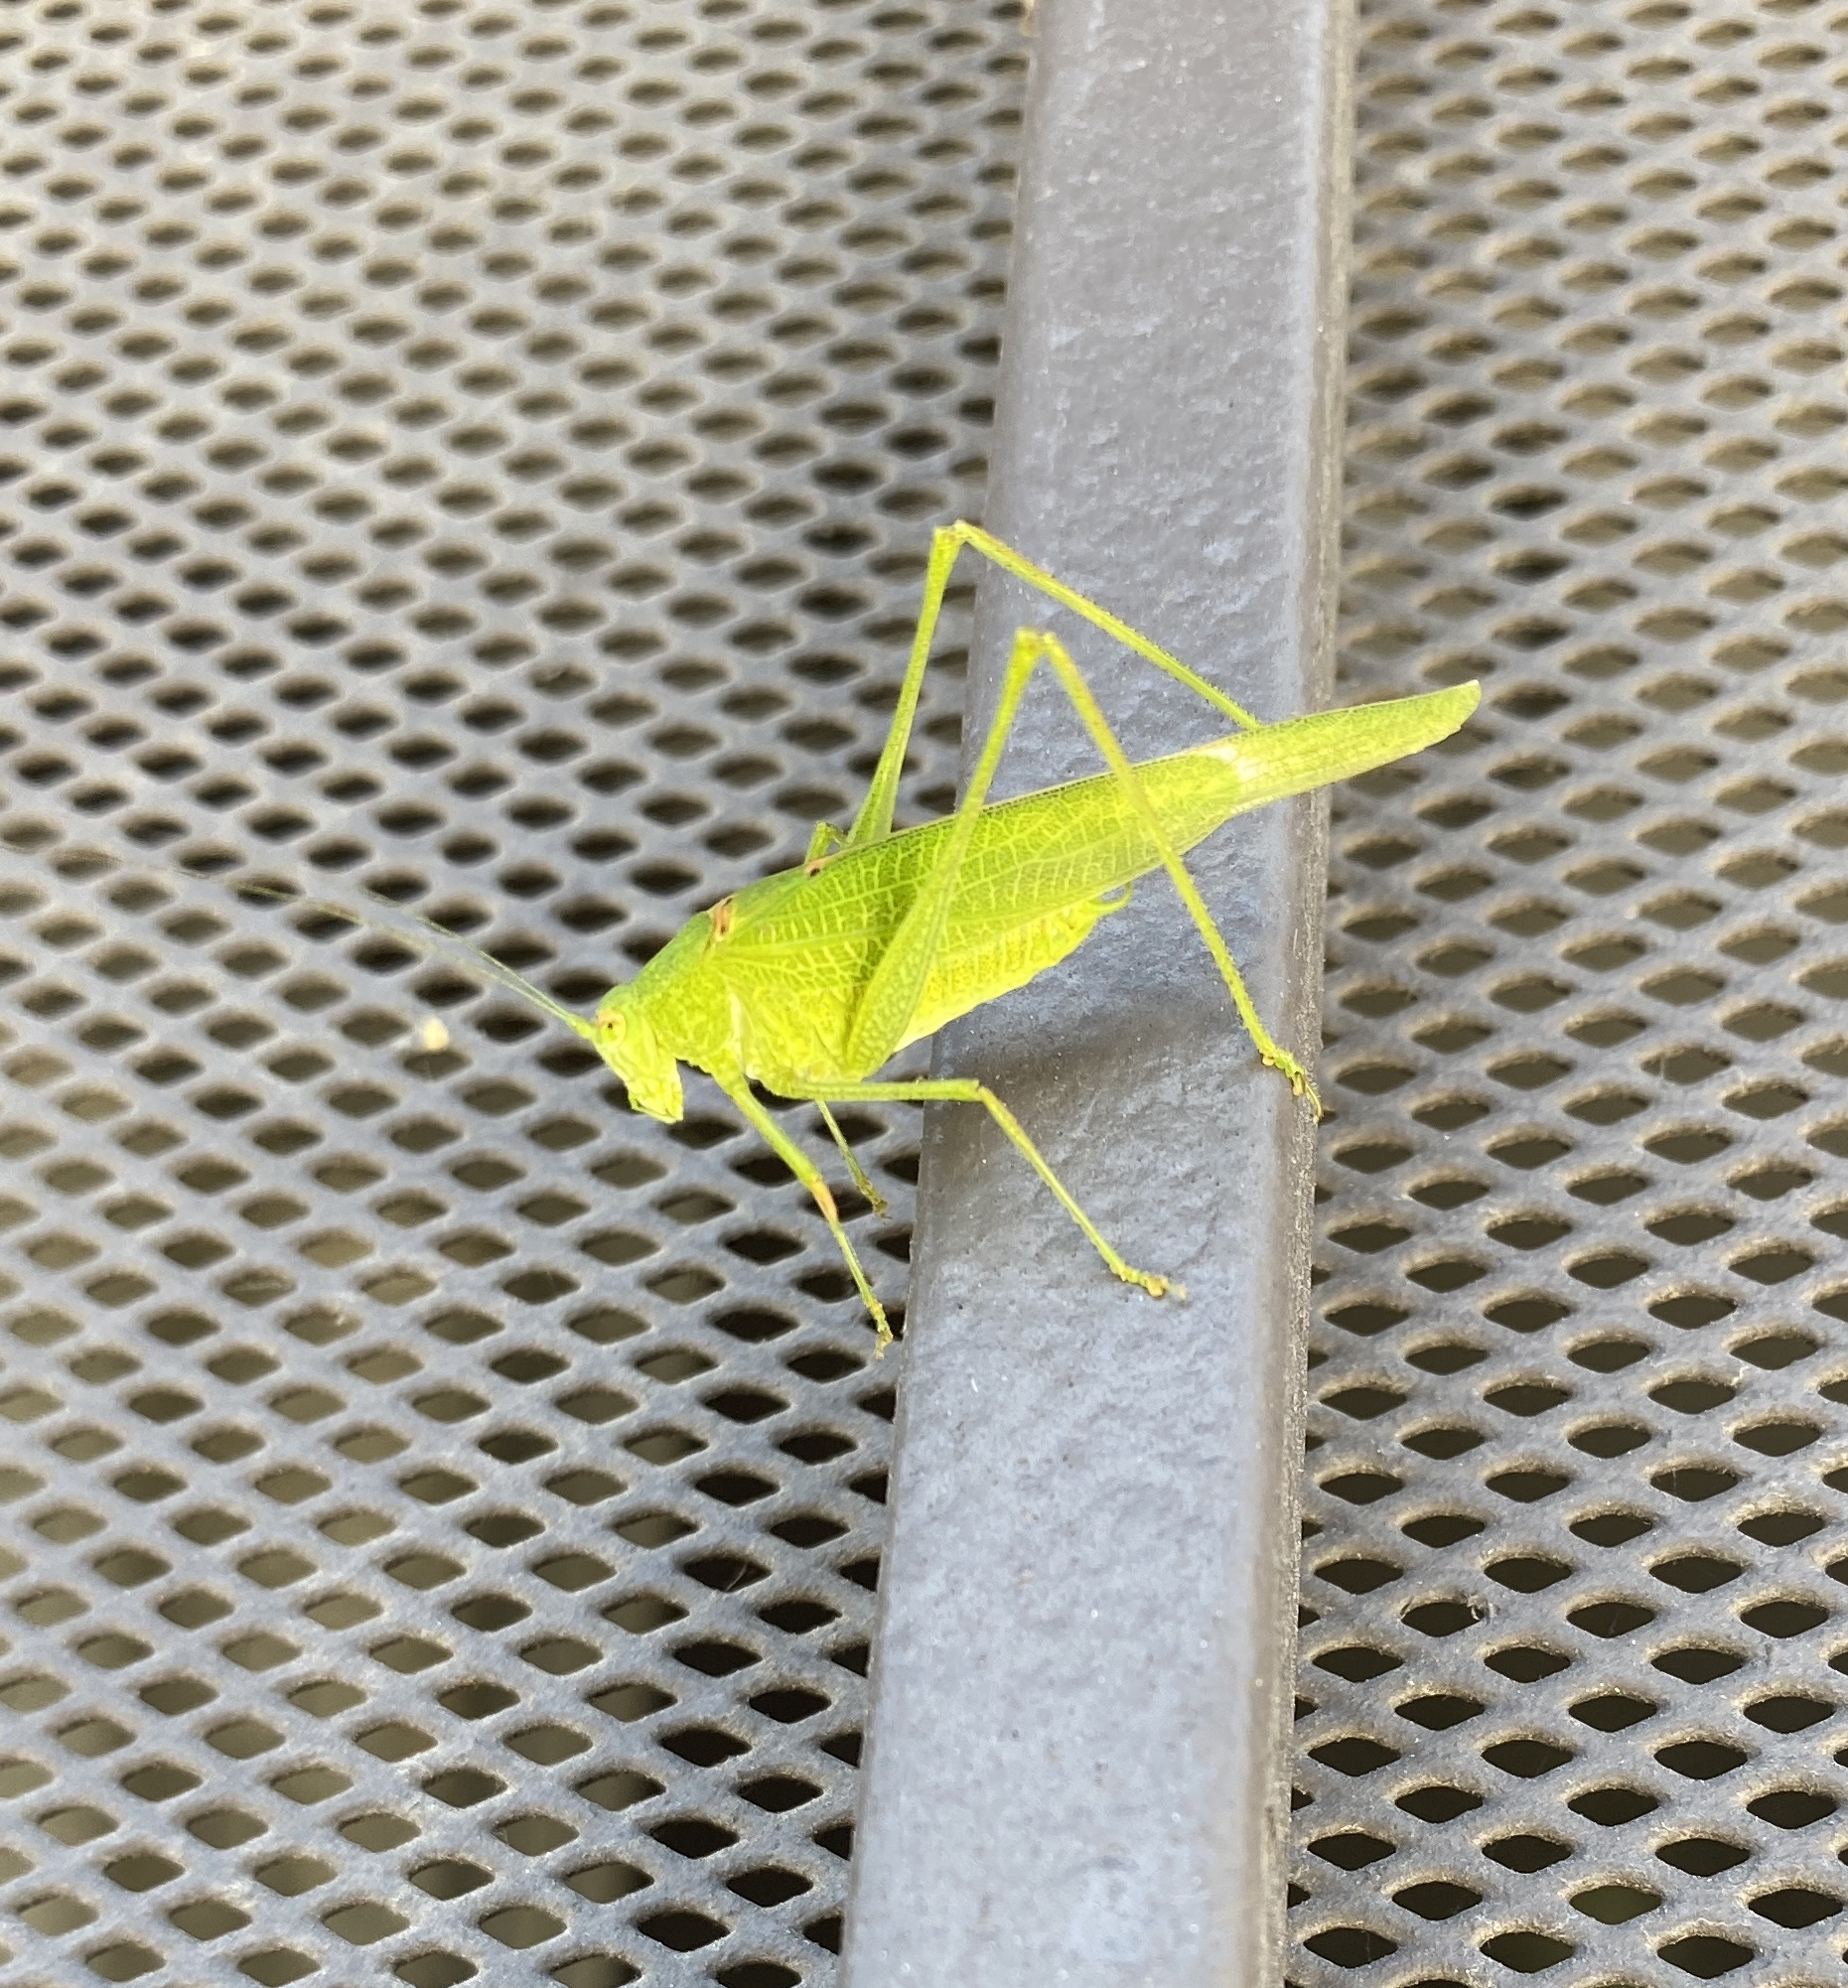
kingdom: Animalia
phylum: Arthropoda
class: Insecta
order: Orthoptera
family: Tettigoniidae
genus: Phaneroptera
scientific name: Phaneroptera nana
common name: Southern sickle bush-cricket
